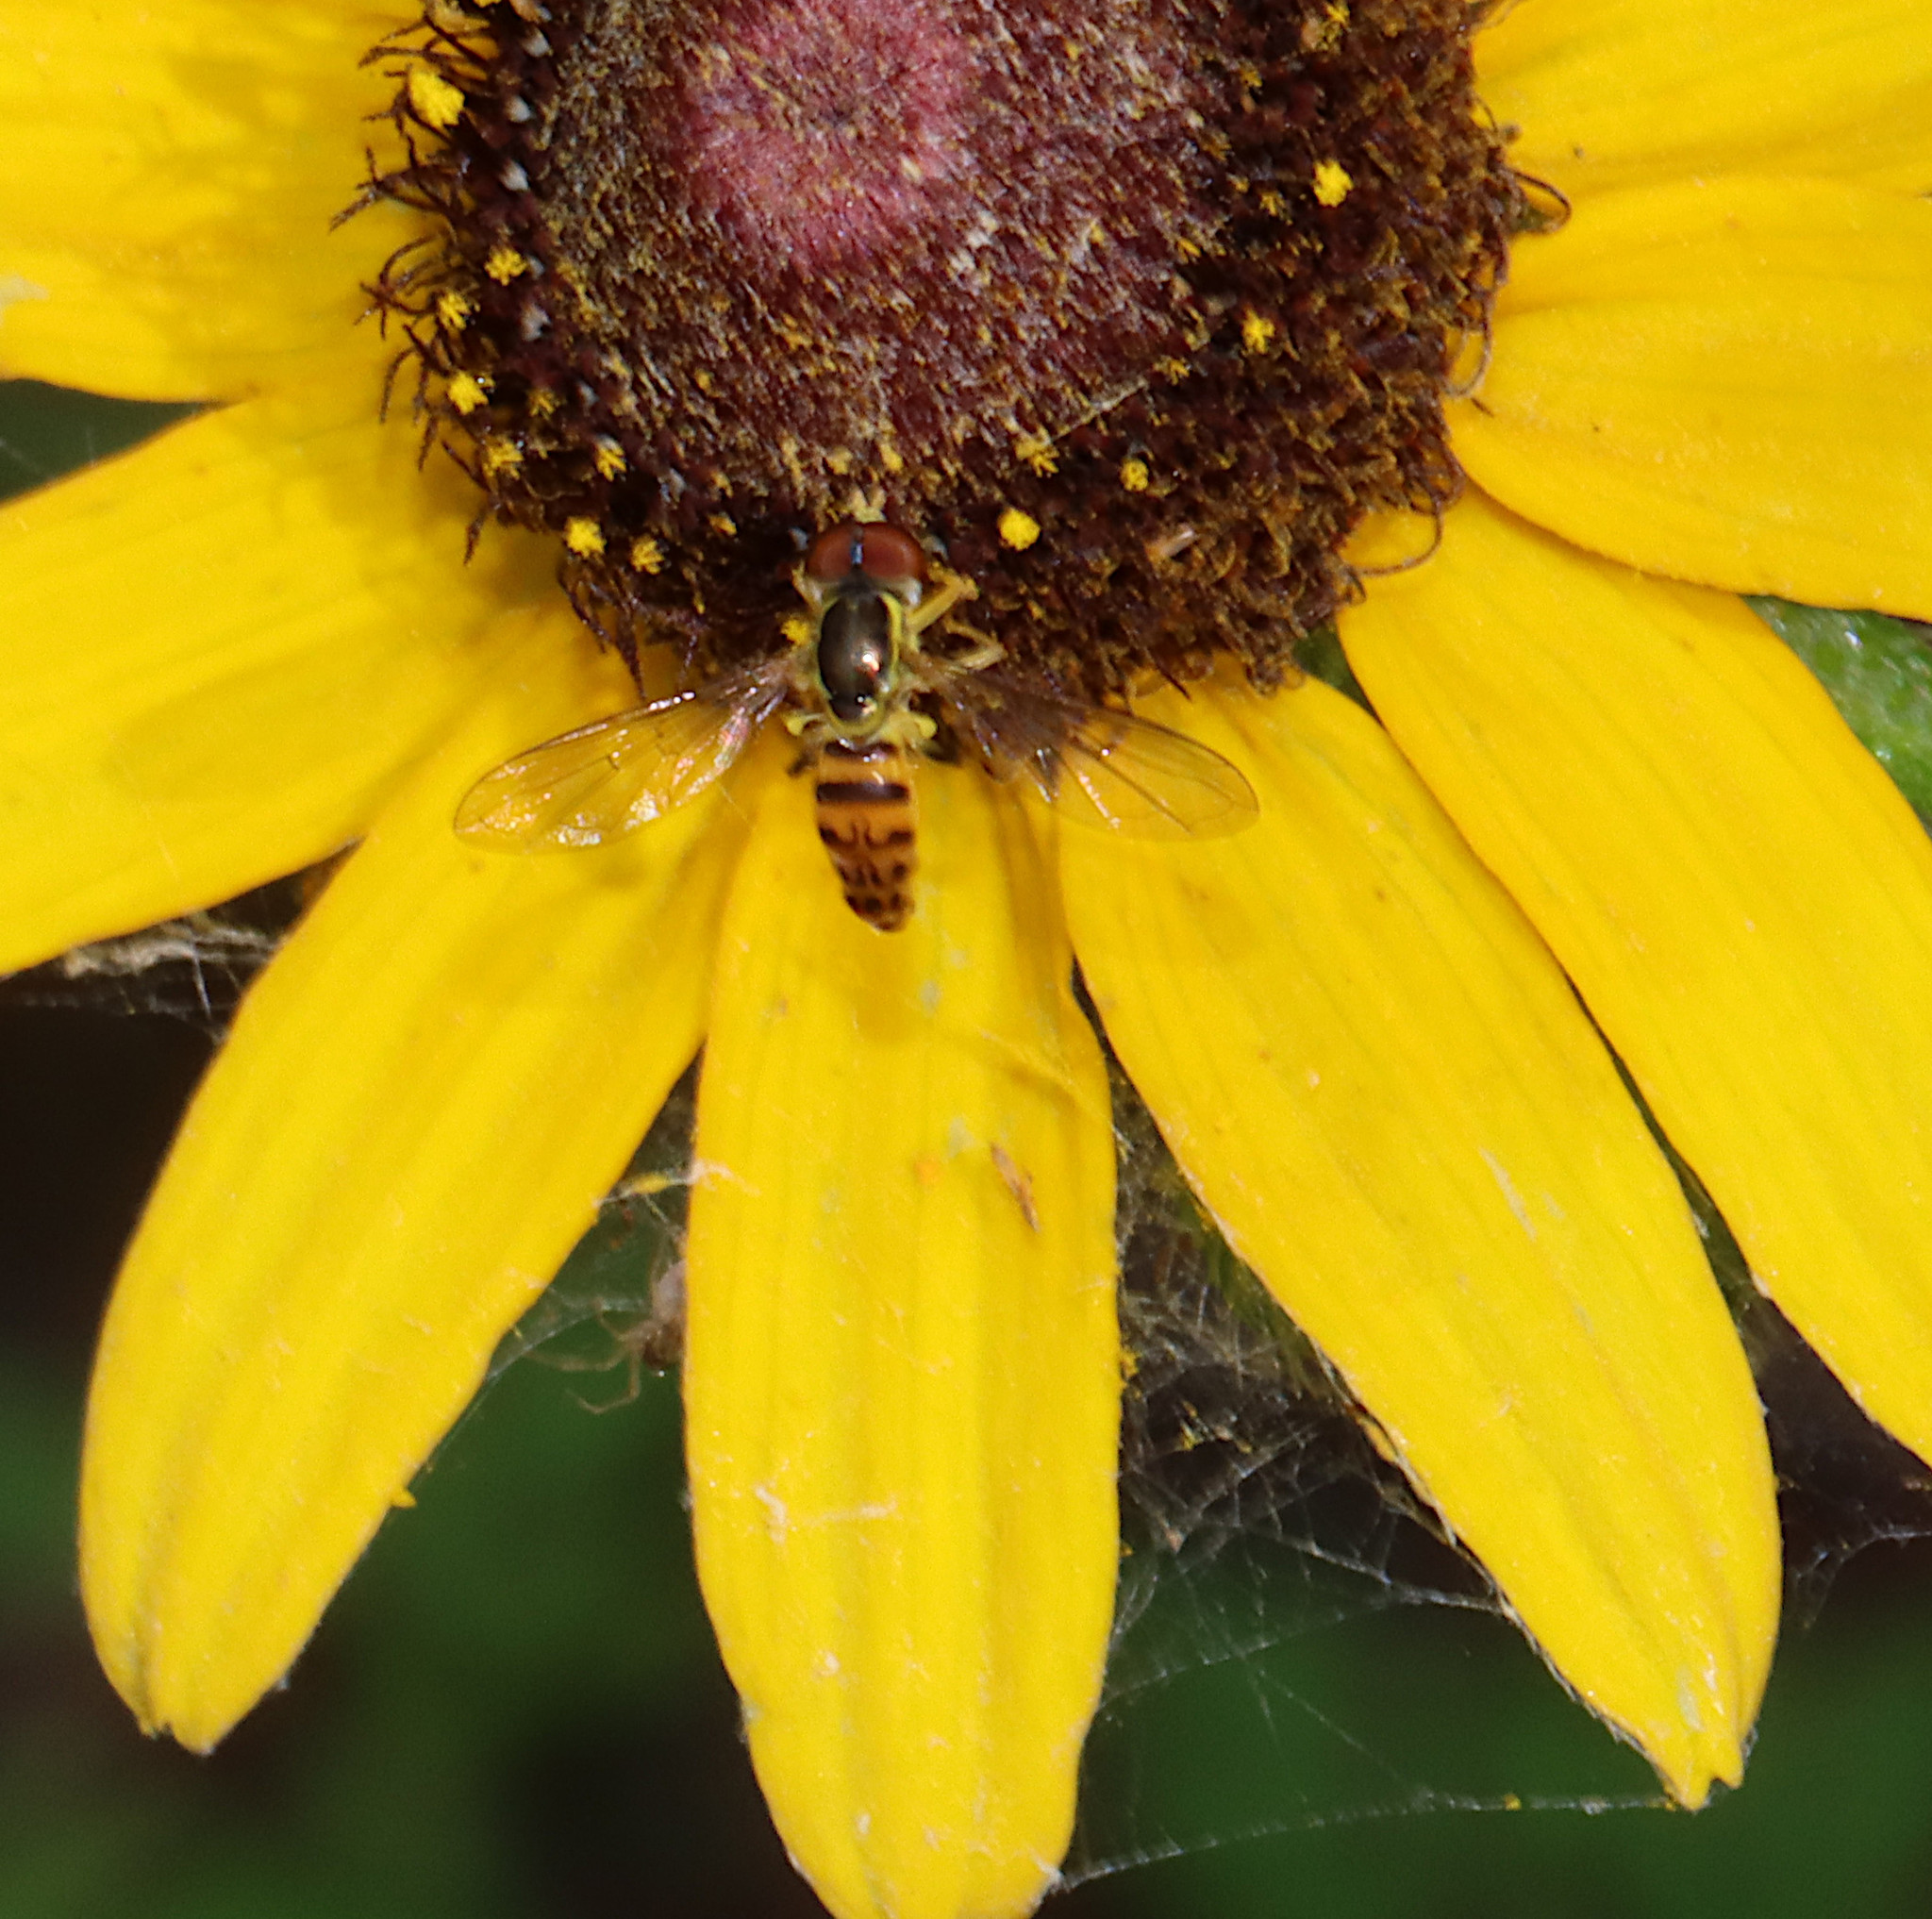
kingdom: Animalia
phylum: Arthropoda
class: Insecta
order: Diptera
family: Syrphidae
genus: Toxomerus
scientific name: Toxomerus geminatus
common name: Eastern calligrapher
